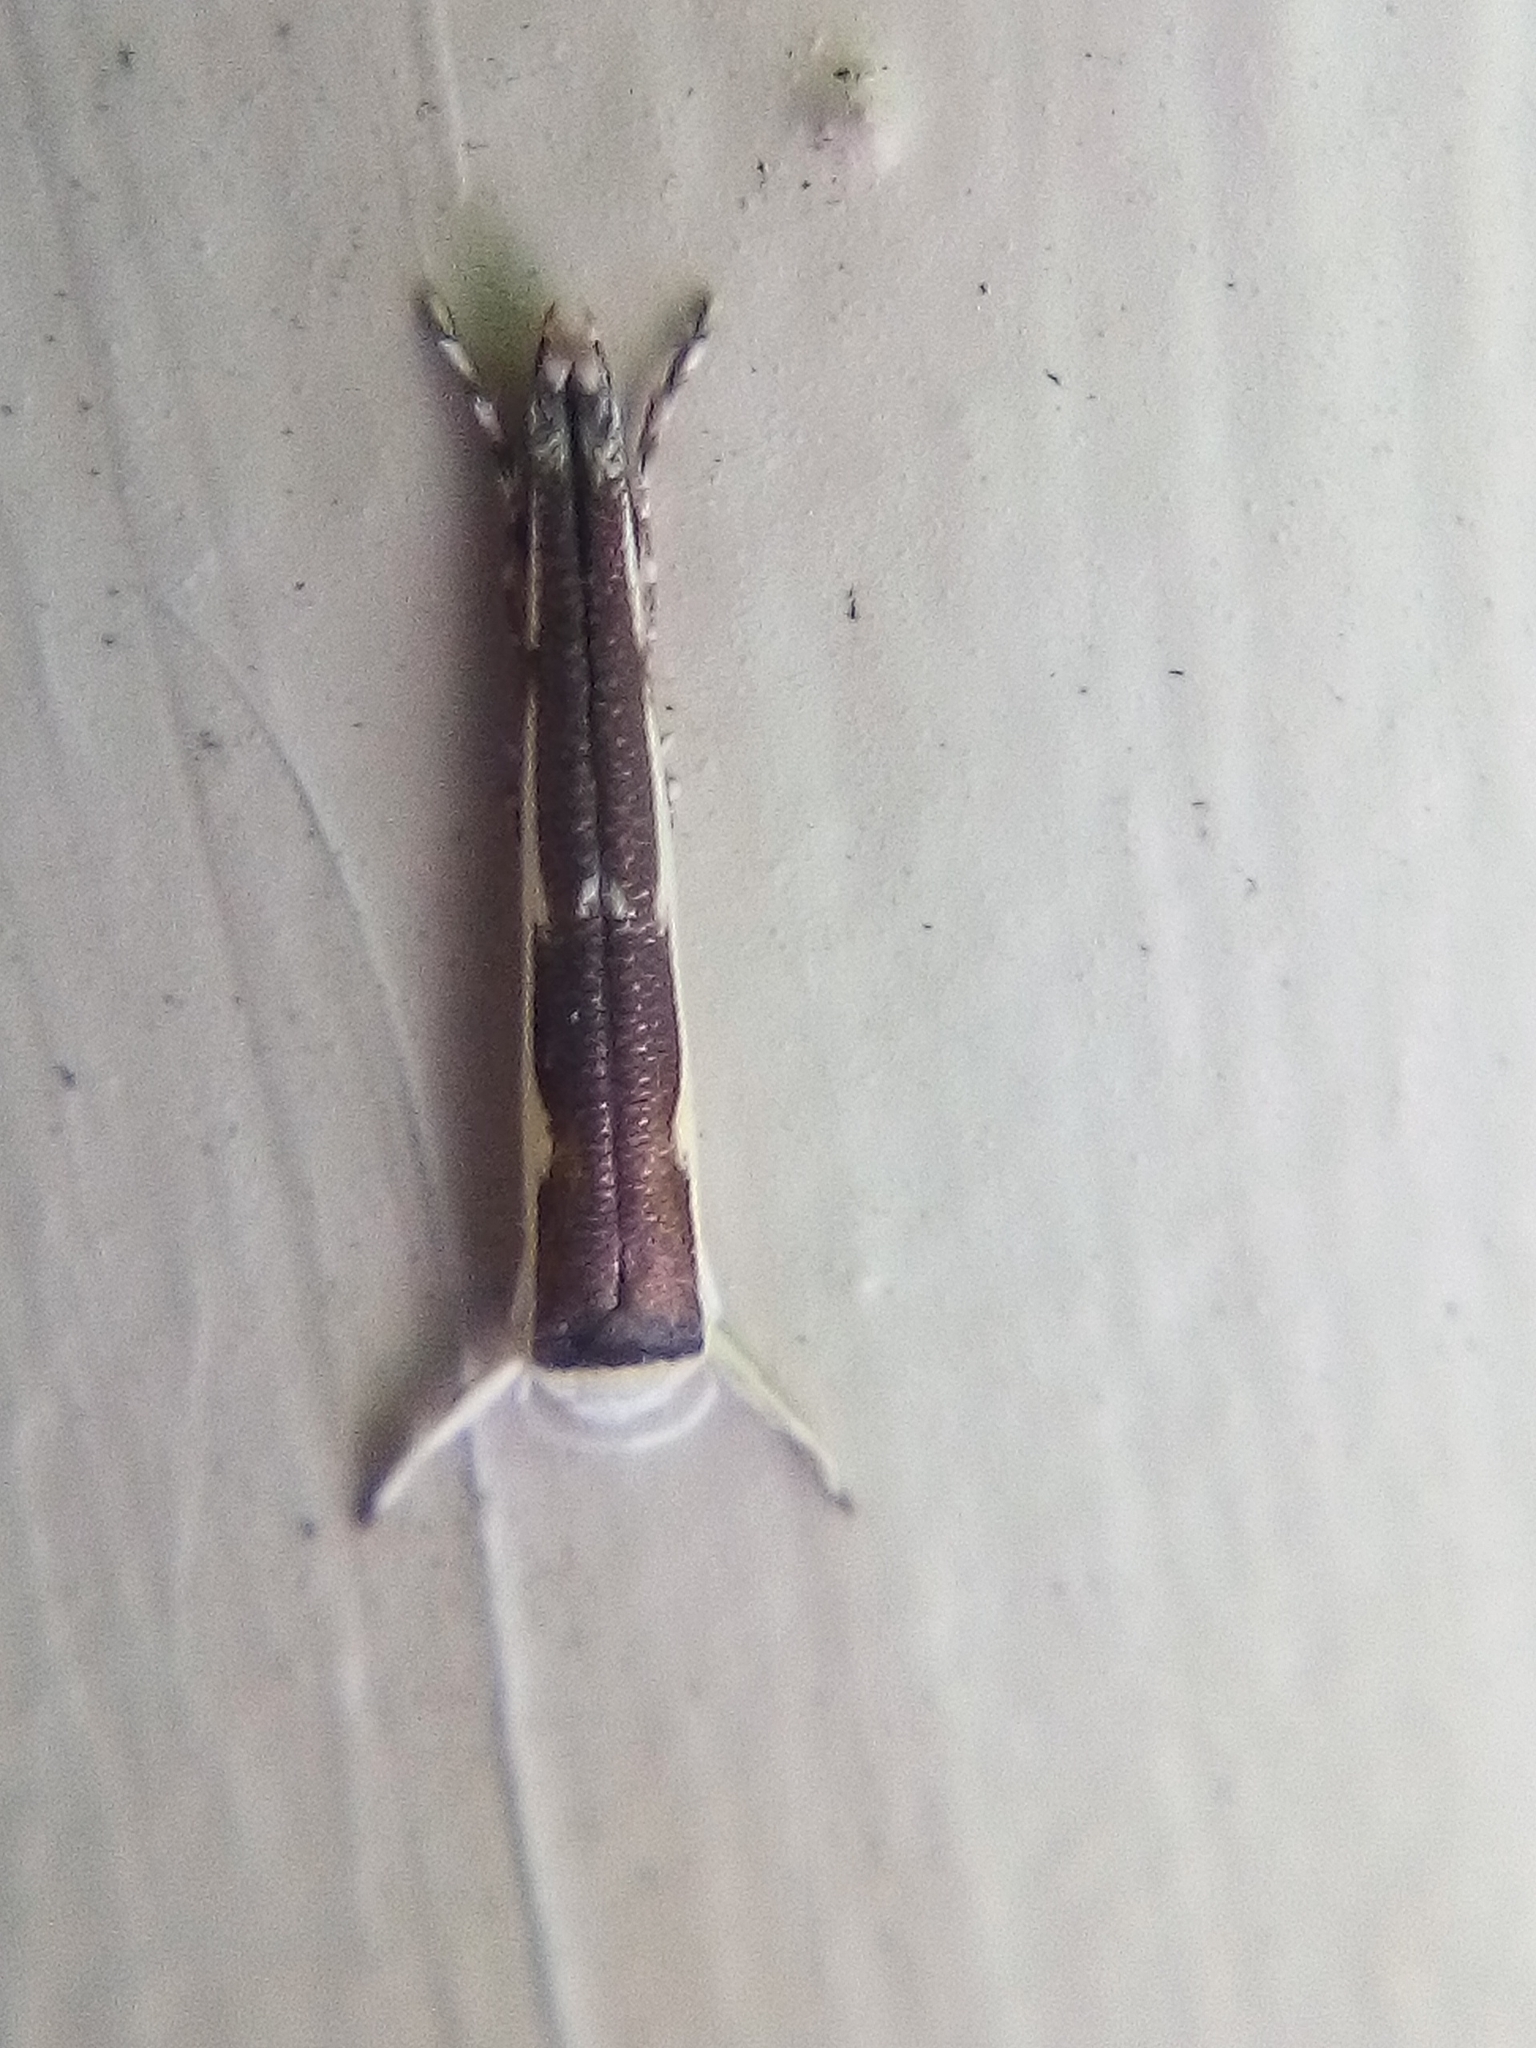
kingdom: Animalia
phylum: Arthropoda
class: Insecta
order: Lepidoptera
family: Roeslerstammiidae
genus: Vanicela
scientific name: Vanicela disjunctella
